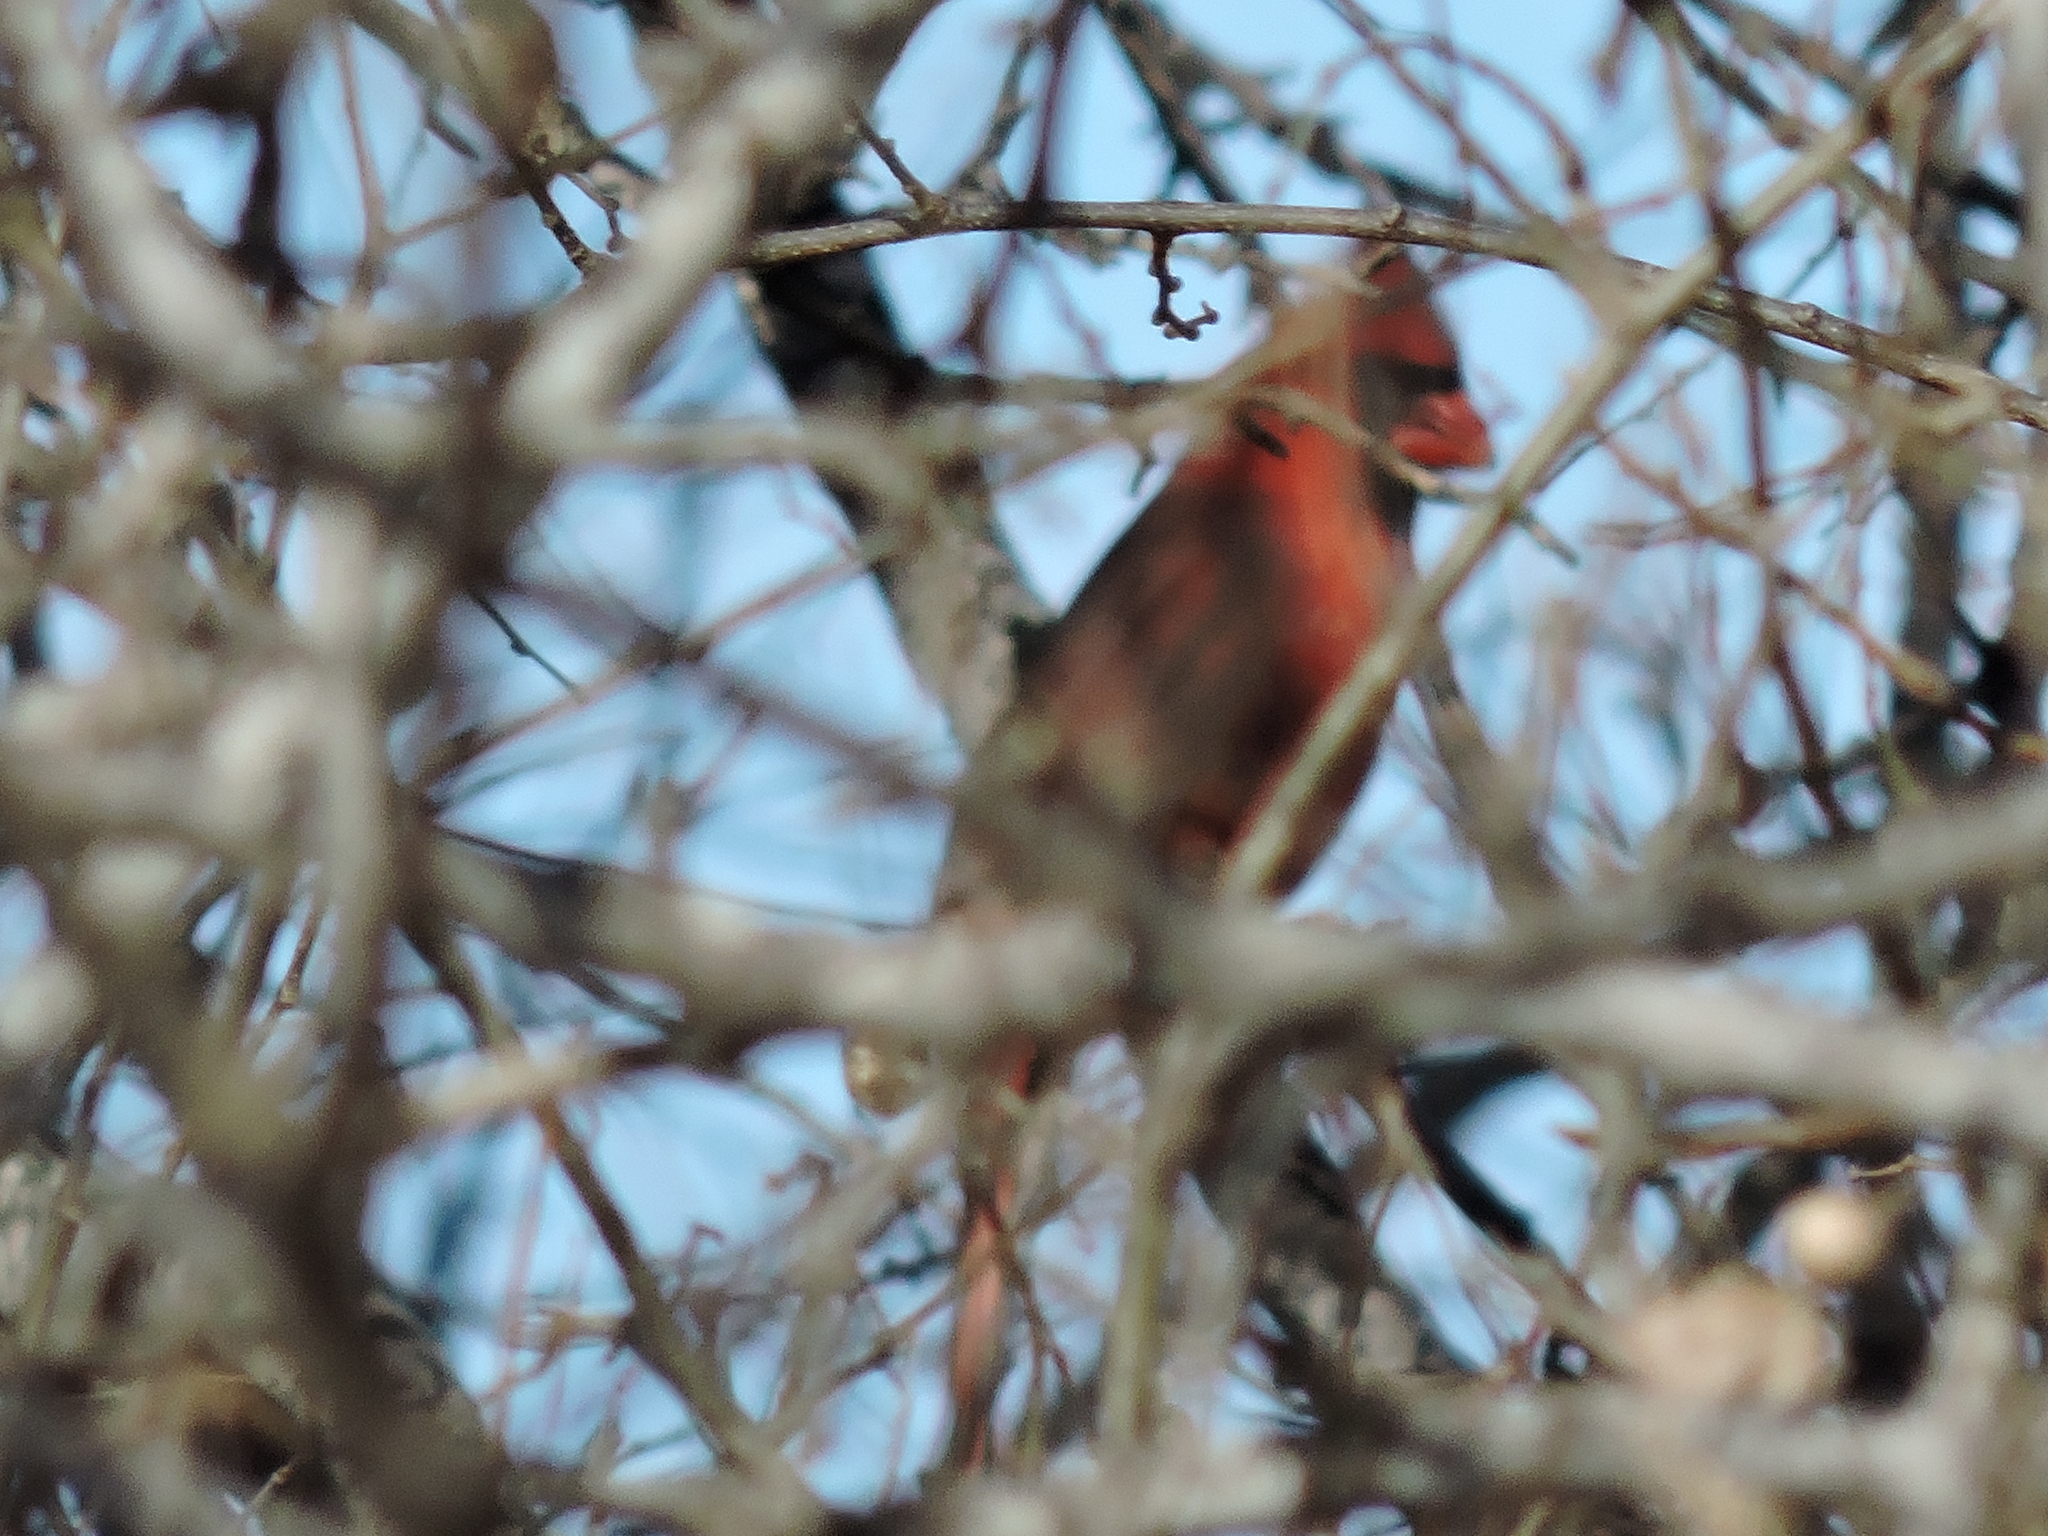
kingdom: Animalia
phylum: Chordata
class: Aves
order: Passeriformes
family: Cardinalidae
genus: Cardinalis
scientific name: Cardinalis cardinalis
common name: Northern cardinal
